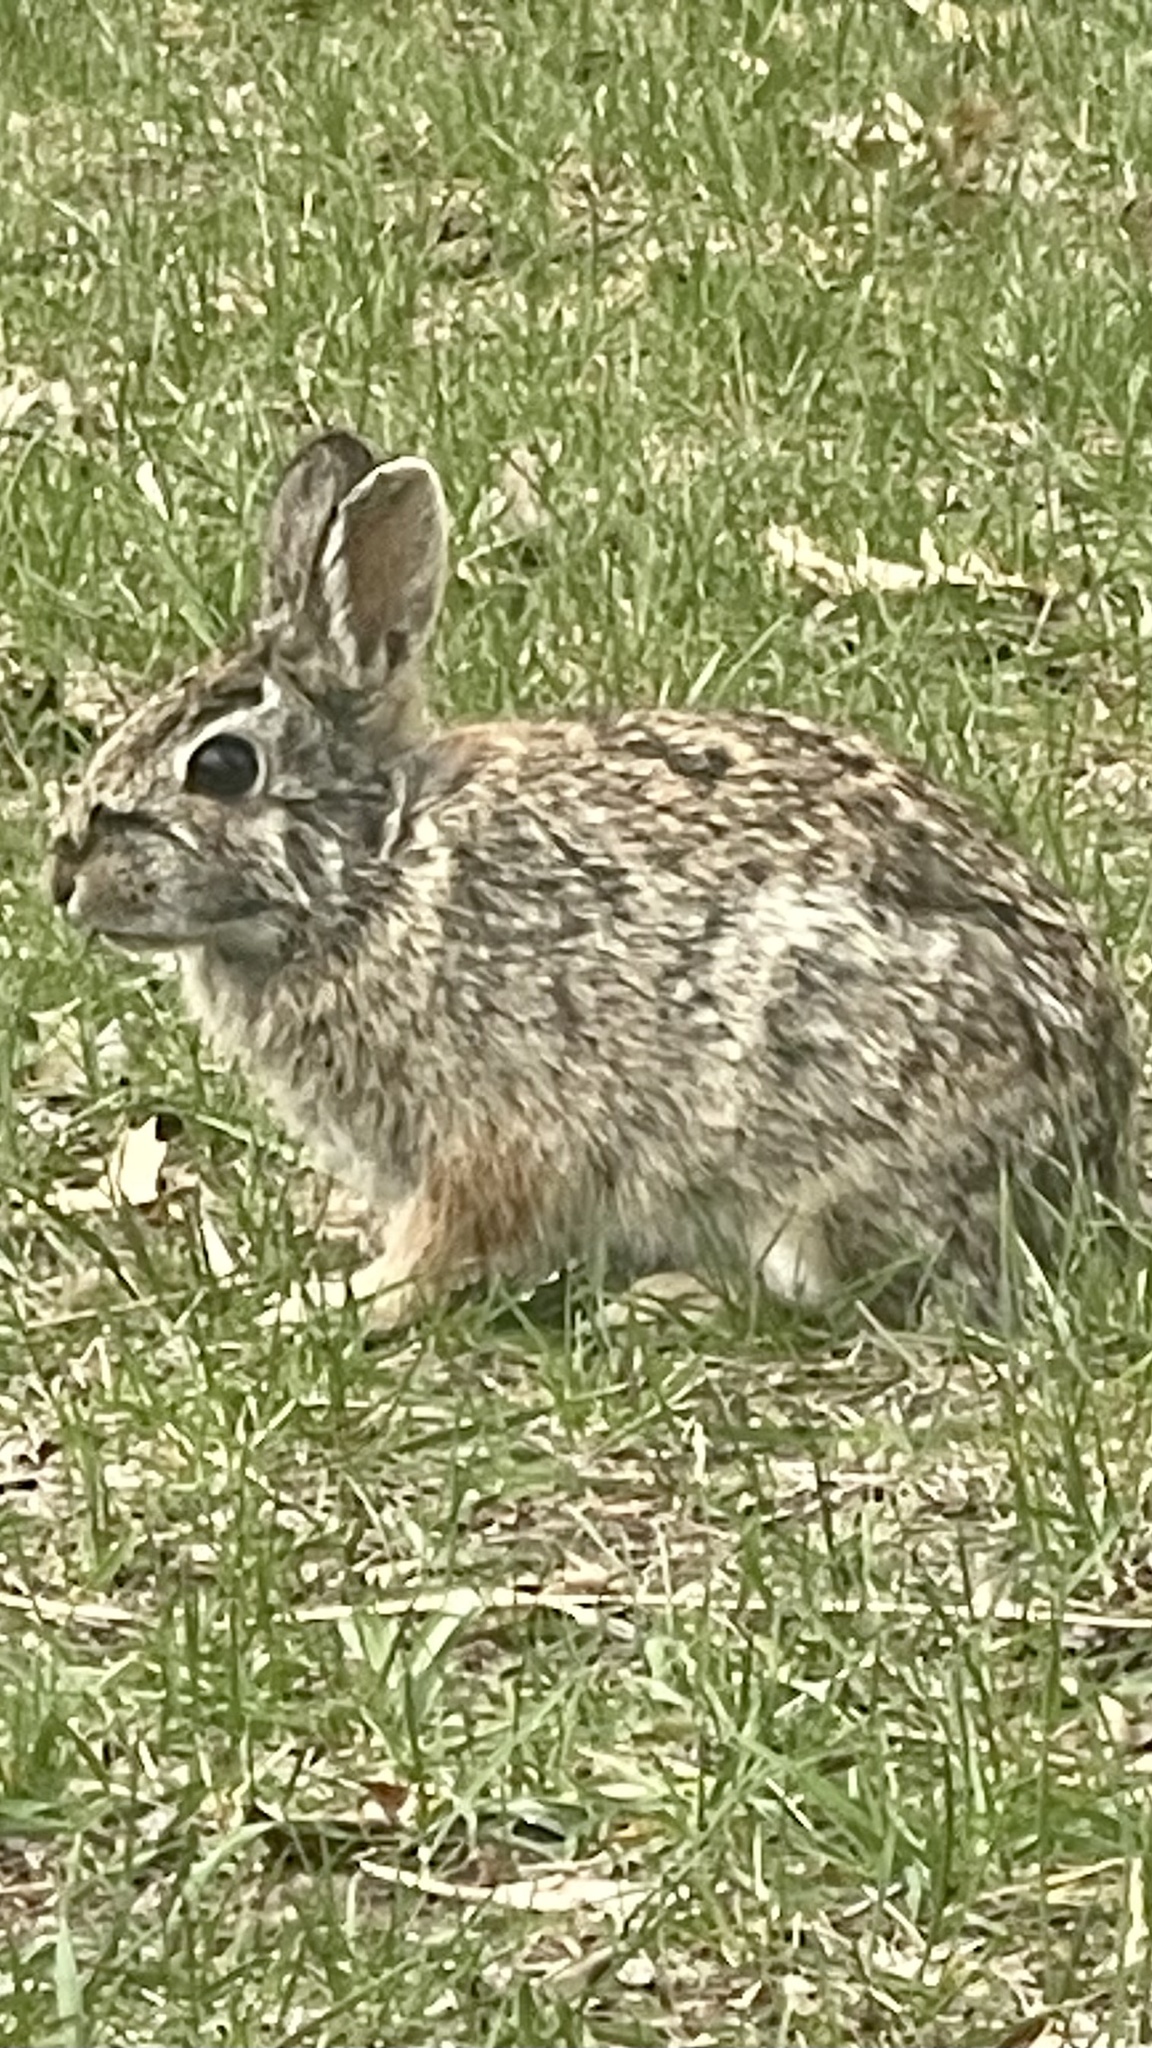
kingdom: Animalia
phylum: Chordata
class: Mammalia
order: Lagomorpha
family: Leporidae
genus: Sylvilagus
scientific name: Sylvilagus floridanus
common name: Eastern cottontail
